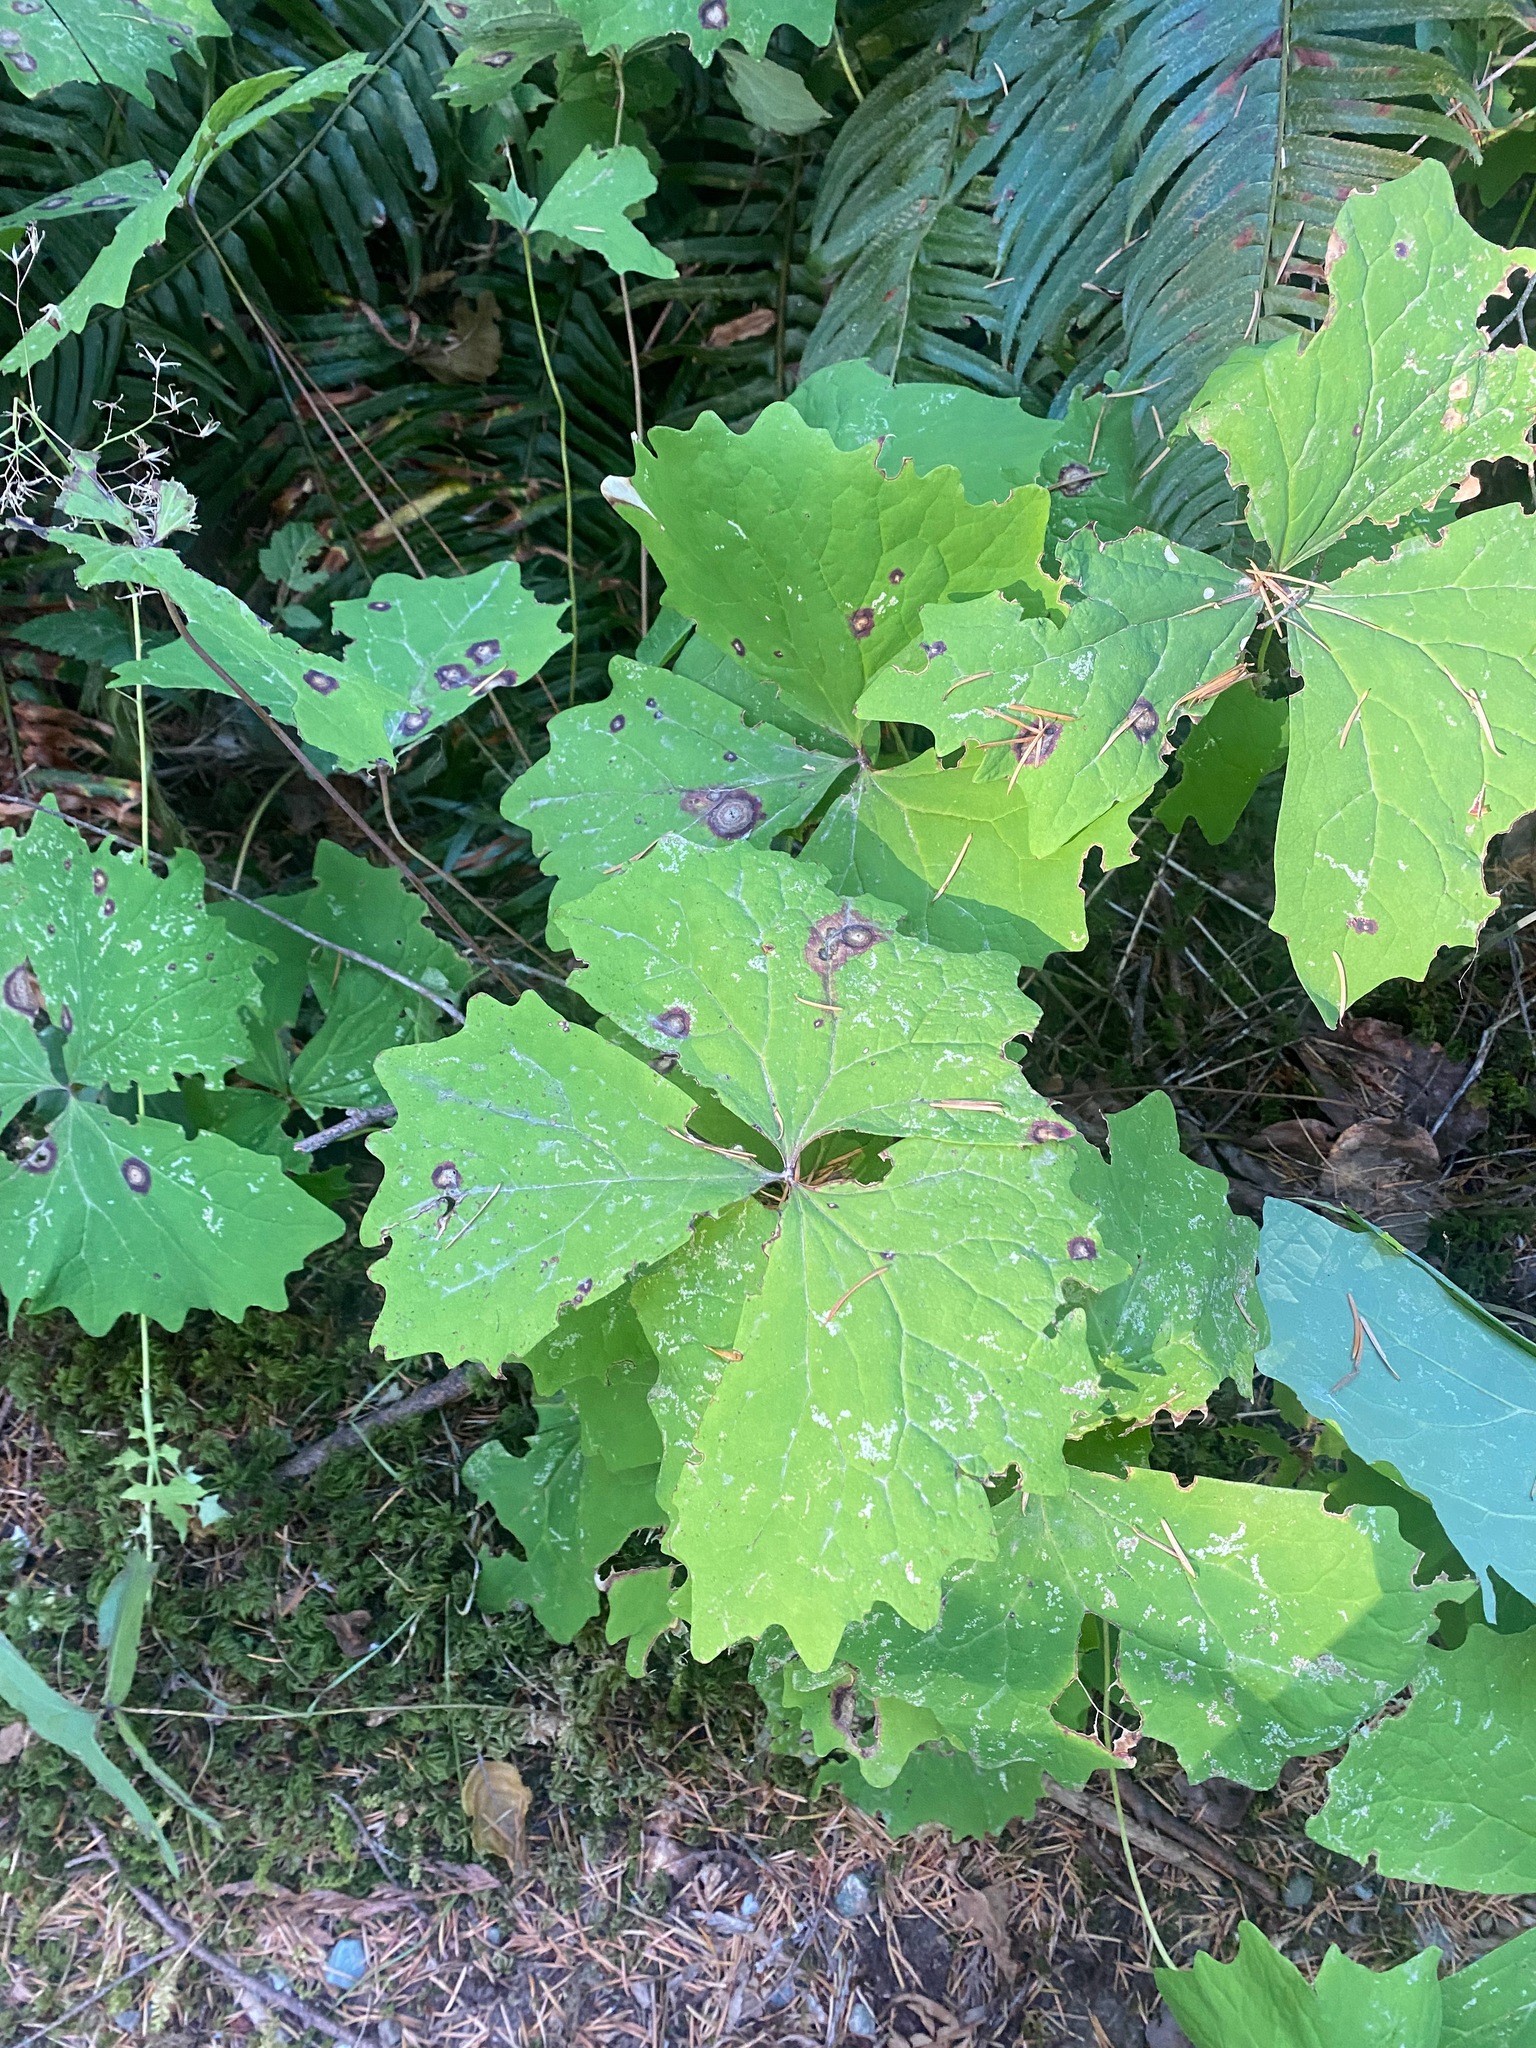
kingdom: Plantae
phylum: Tracheophyta
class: Magnoliopsida
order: Ranunculales
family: Berberidaceae
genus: Achlys
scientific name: Achlys triphylla
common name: Vanilla-leaf
